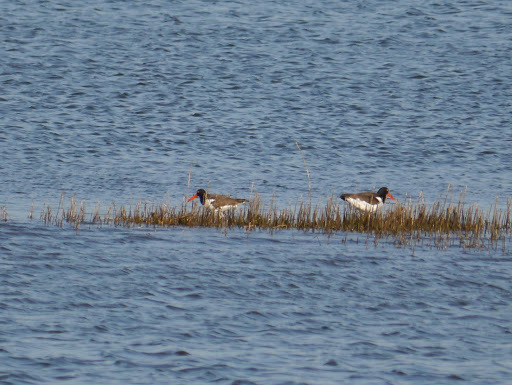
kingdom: Animalia
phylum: Chordata
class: Aves
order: Charadriiformes
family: Haematopodidae
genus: Haematopus
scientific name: Haematopus palliatus
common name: American oystercatcher
